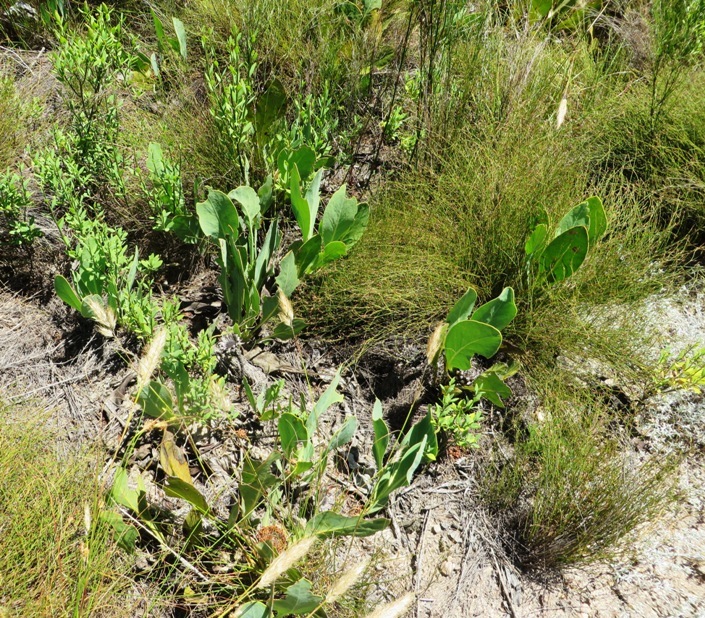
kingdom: Plantae
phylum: Tracheophyta
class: Magnoliopsida
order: Proteales
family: Proteaceae
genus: Protea
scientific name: Protea acaulos
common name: Common ground sugarbush
